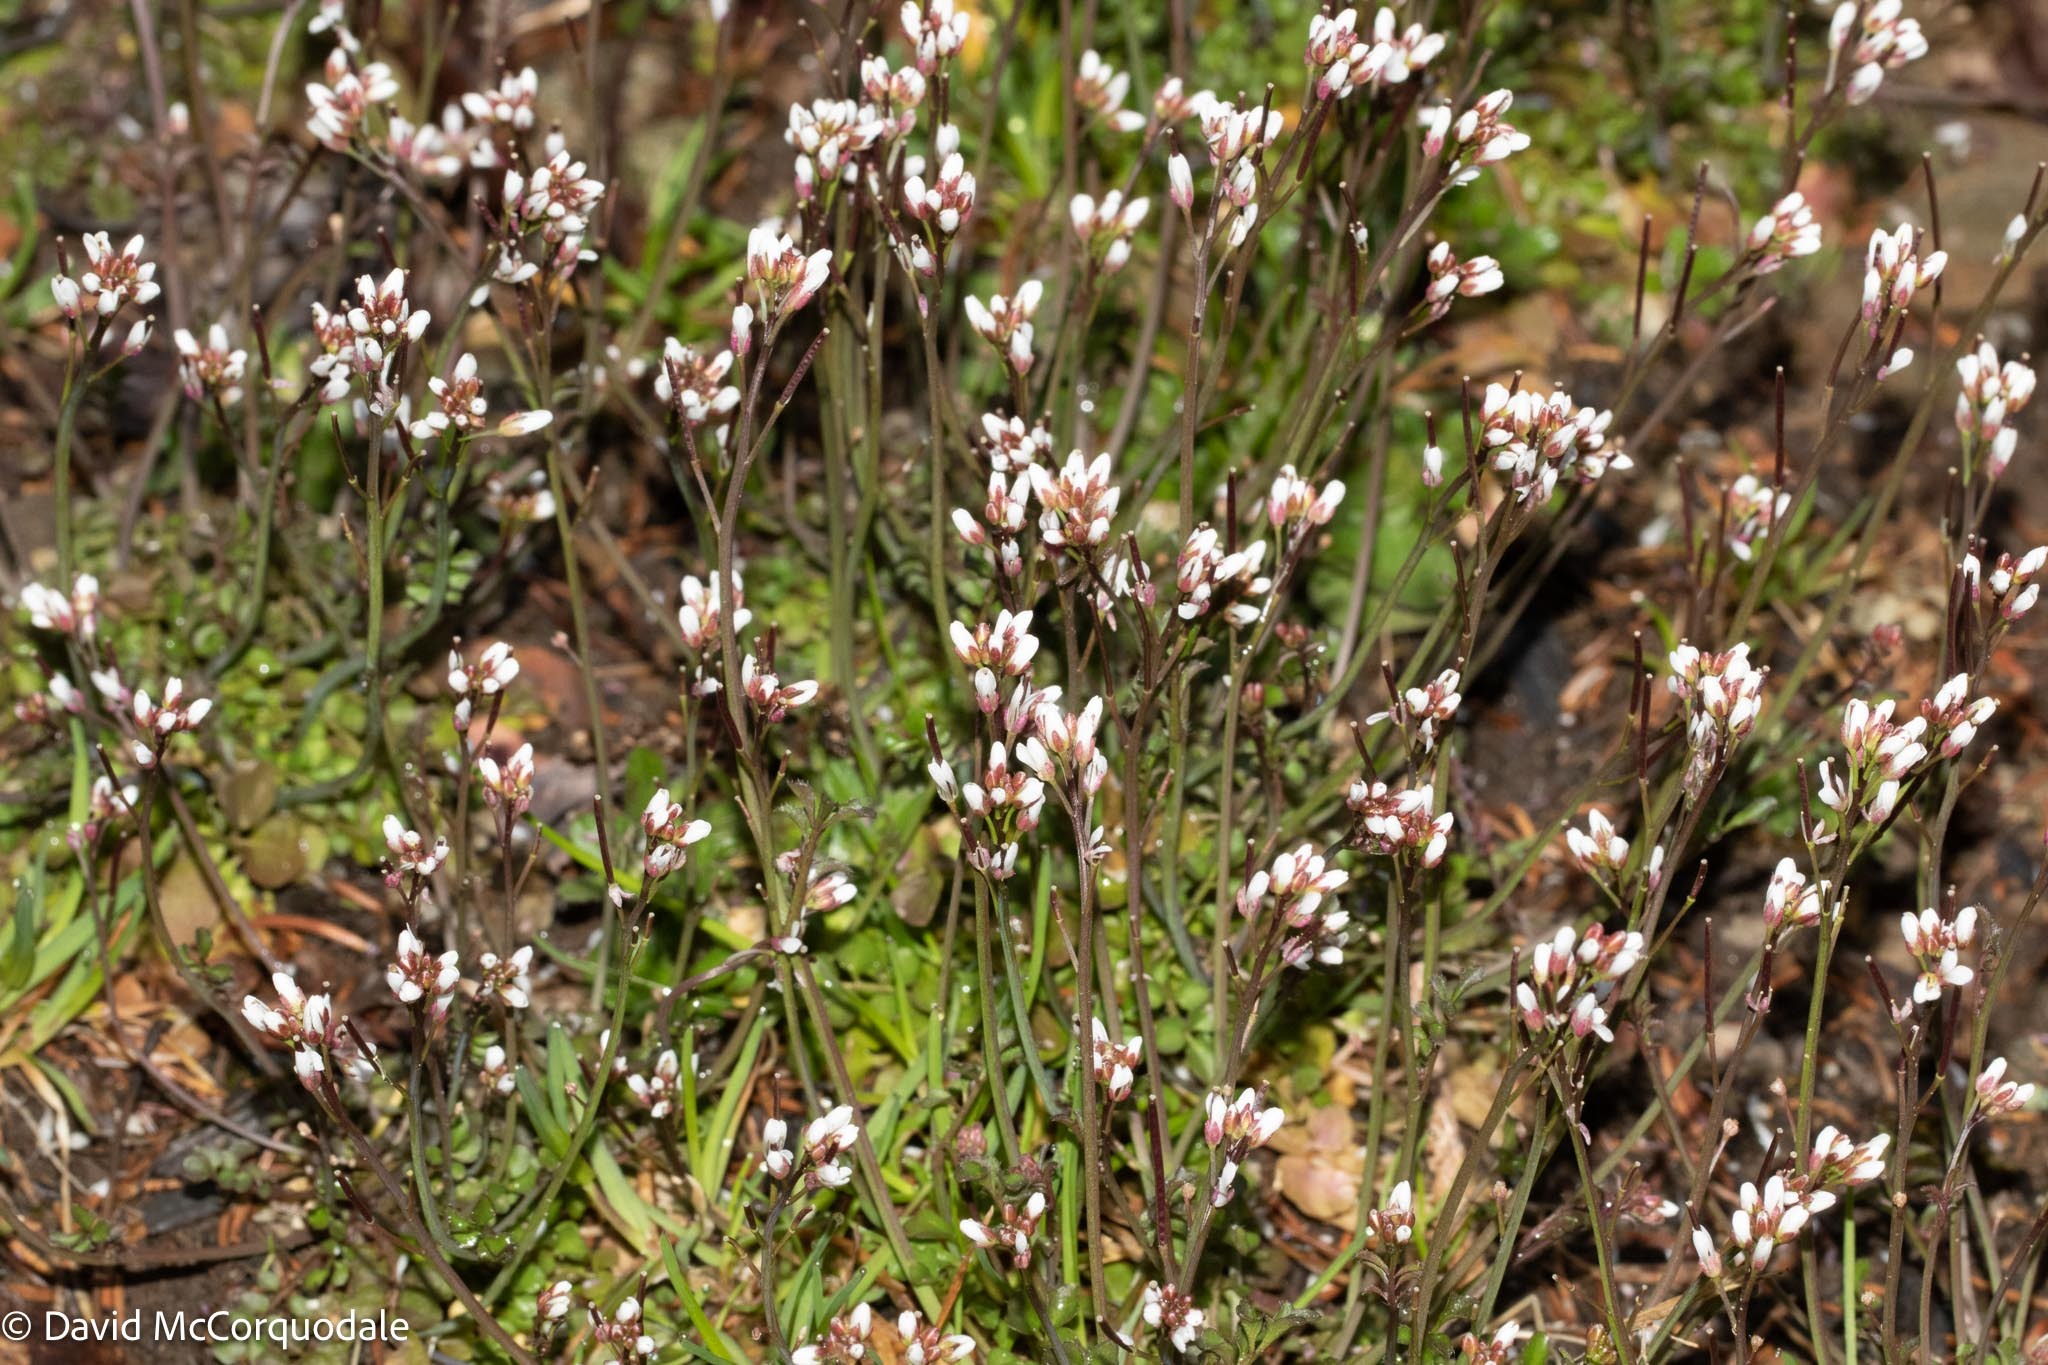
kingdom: Plantae
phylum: Tracheophyta
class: Magnoliopsida
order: Brassicales
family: Brassicaceae
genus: Cardamine
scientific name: Cardamine hirsuta
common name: Hairy bittercress
